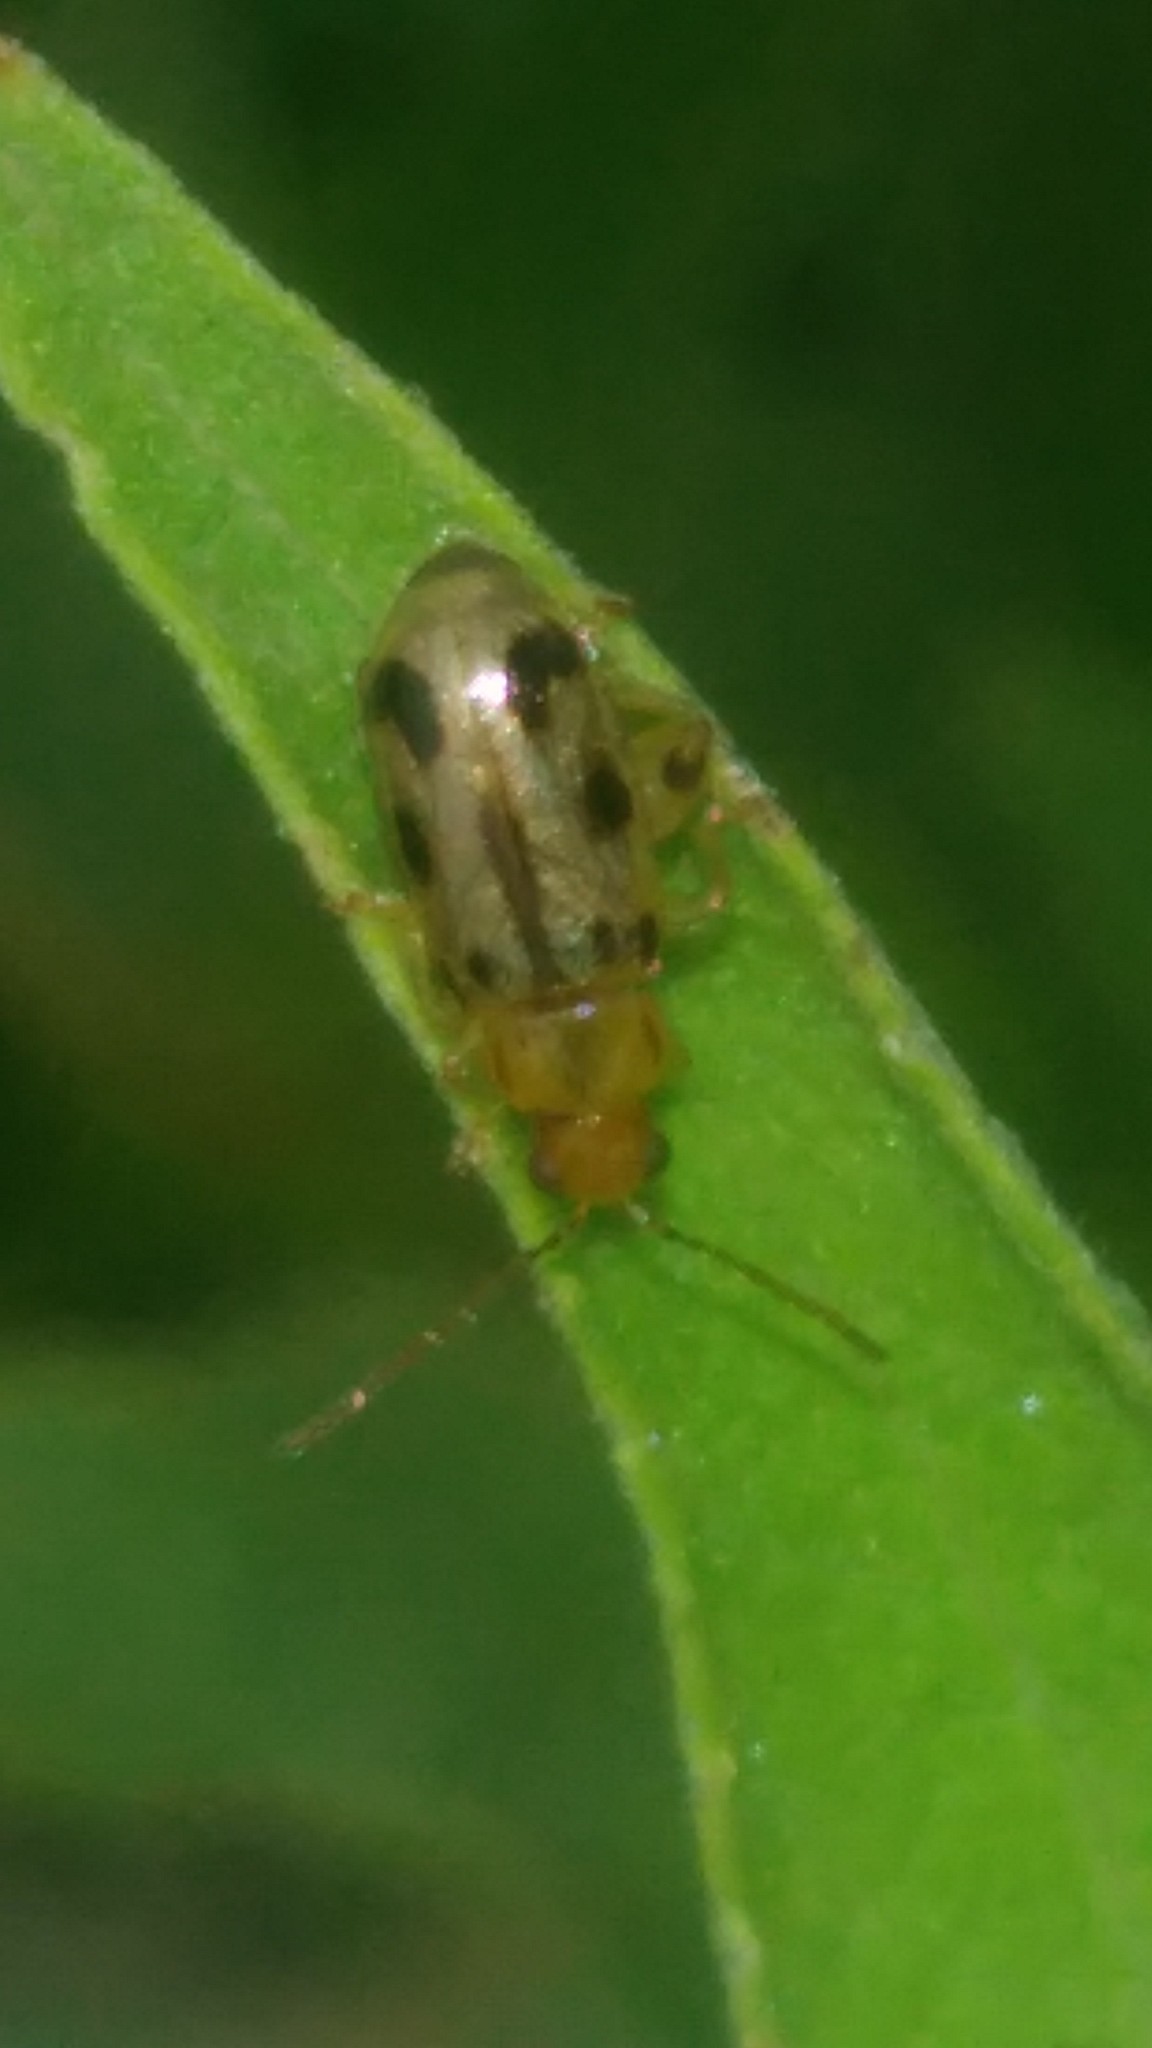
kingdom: Animalia
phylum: Arthropoda
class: Insecta
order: Coleoptera
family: Chrysomelidae
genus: Systena
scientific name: Systena
